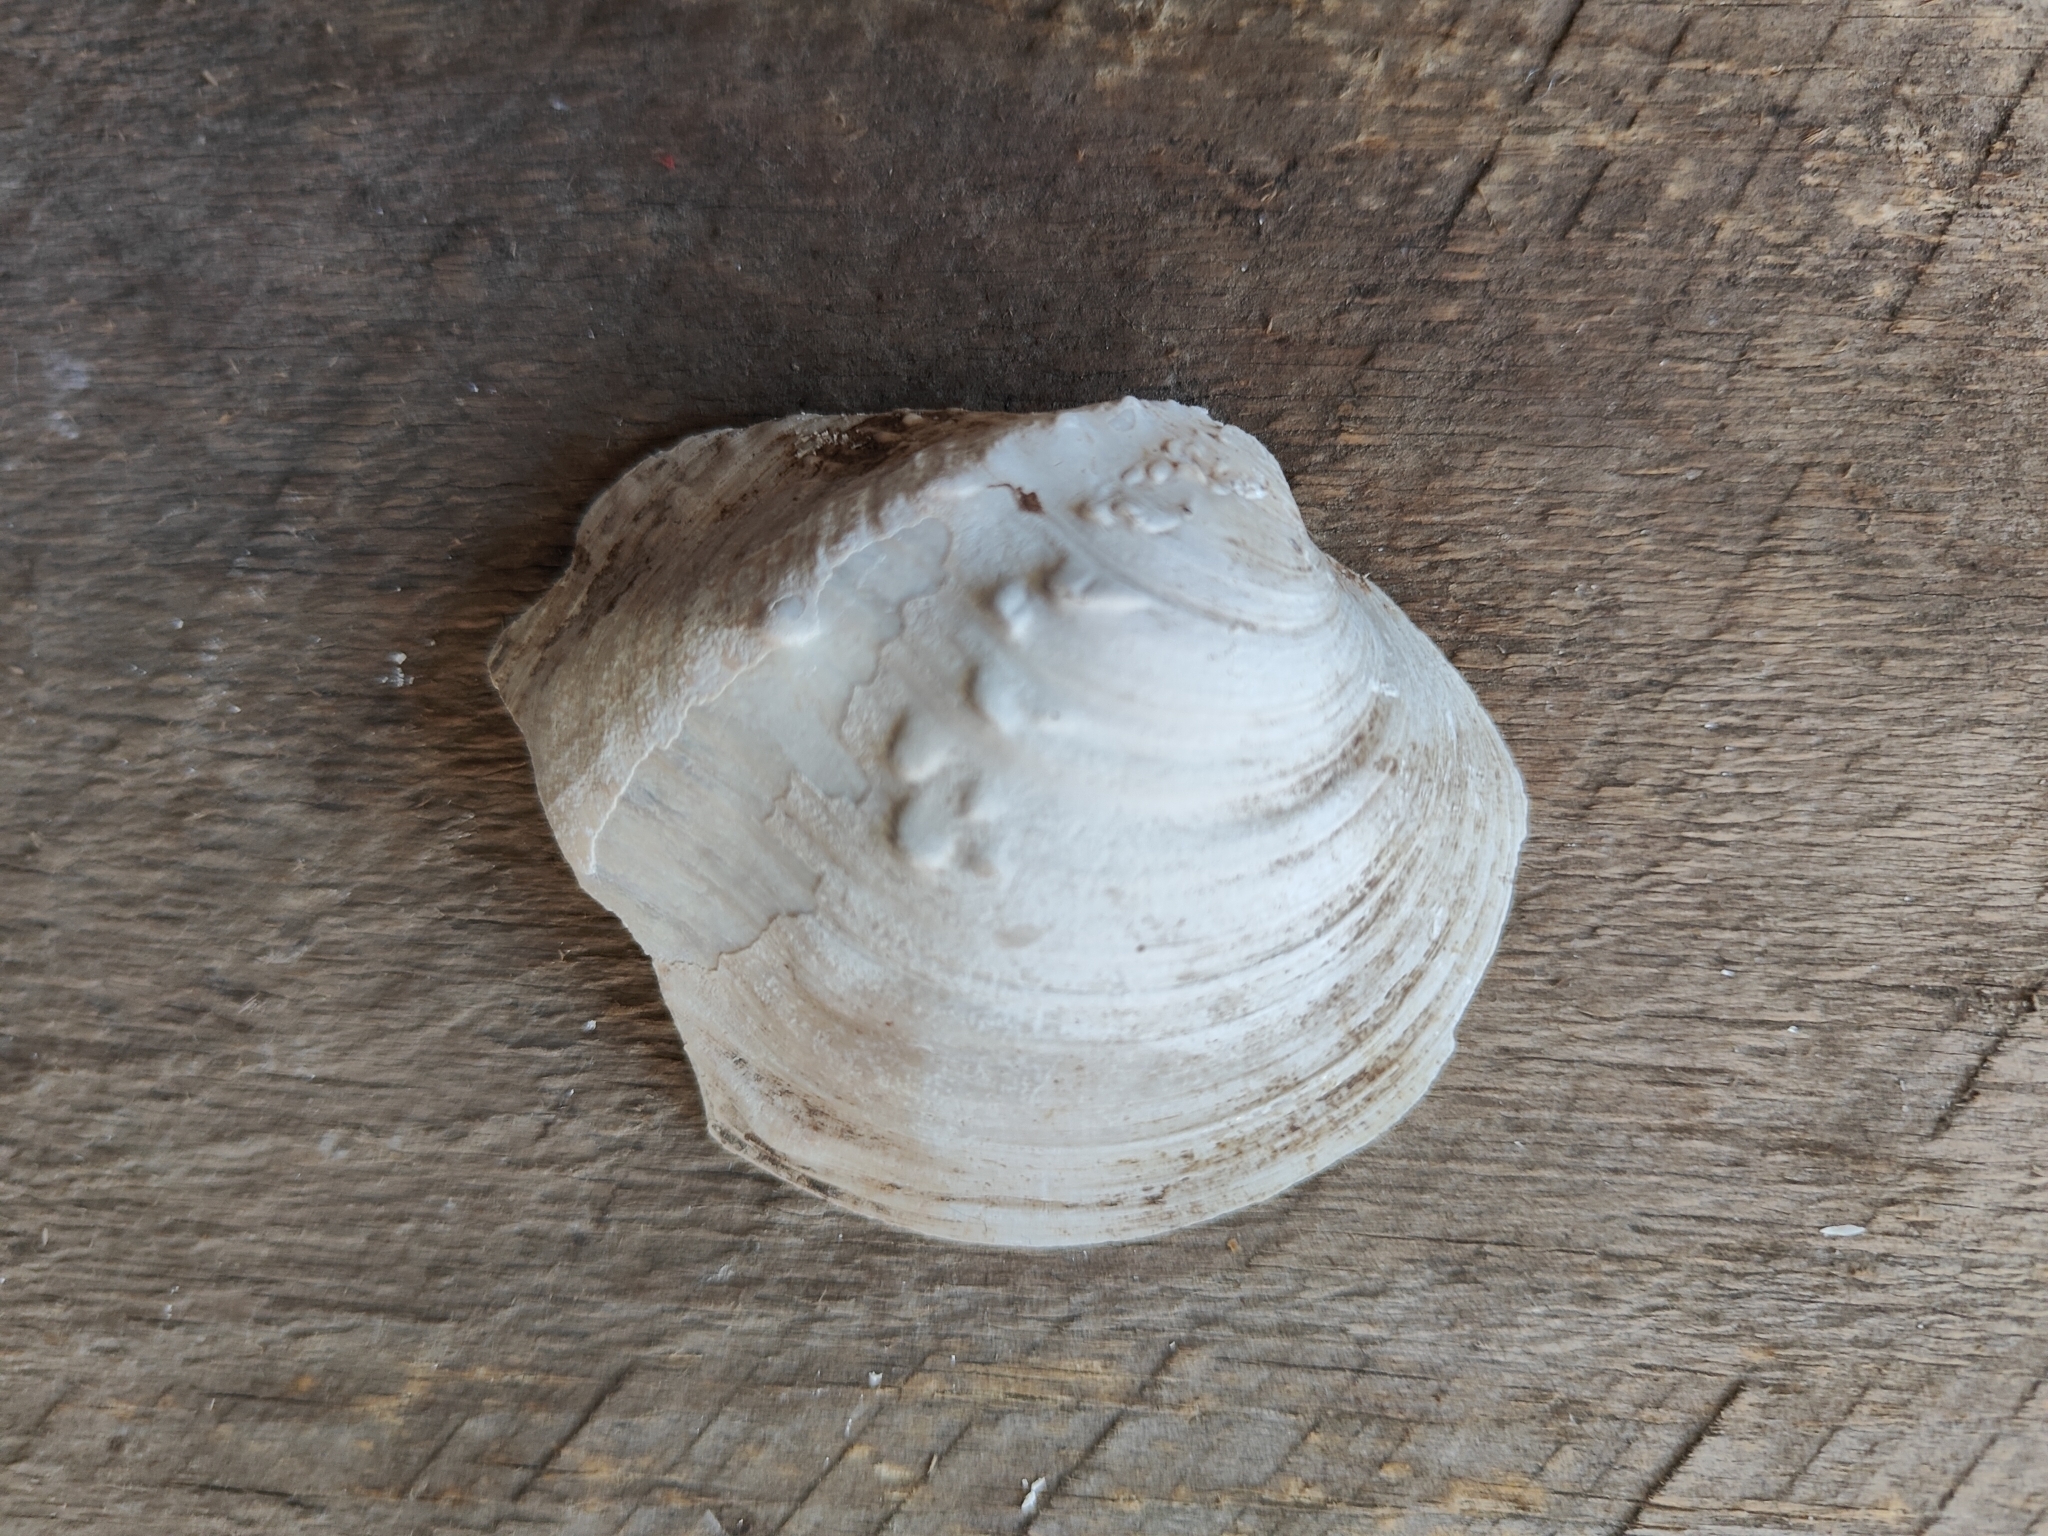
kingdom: Animalia
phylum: Mollusca
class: Bivalvia
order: Unionida
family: Unionidae
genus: Quadrula
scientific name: Quadrula quadrula
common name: Mapleleaf
